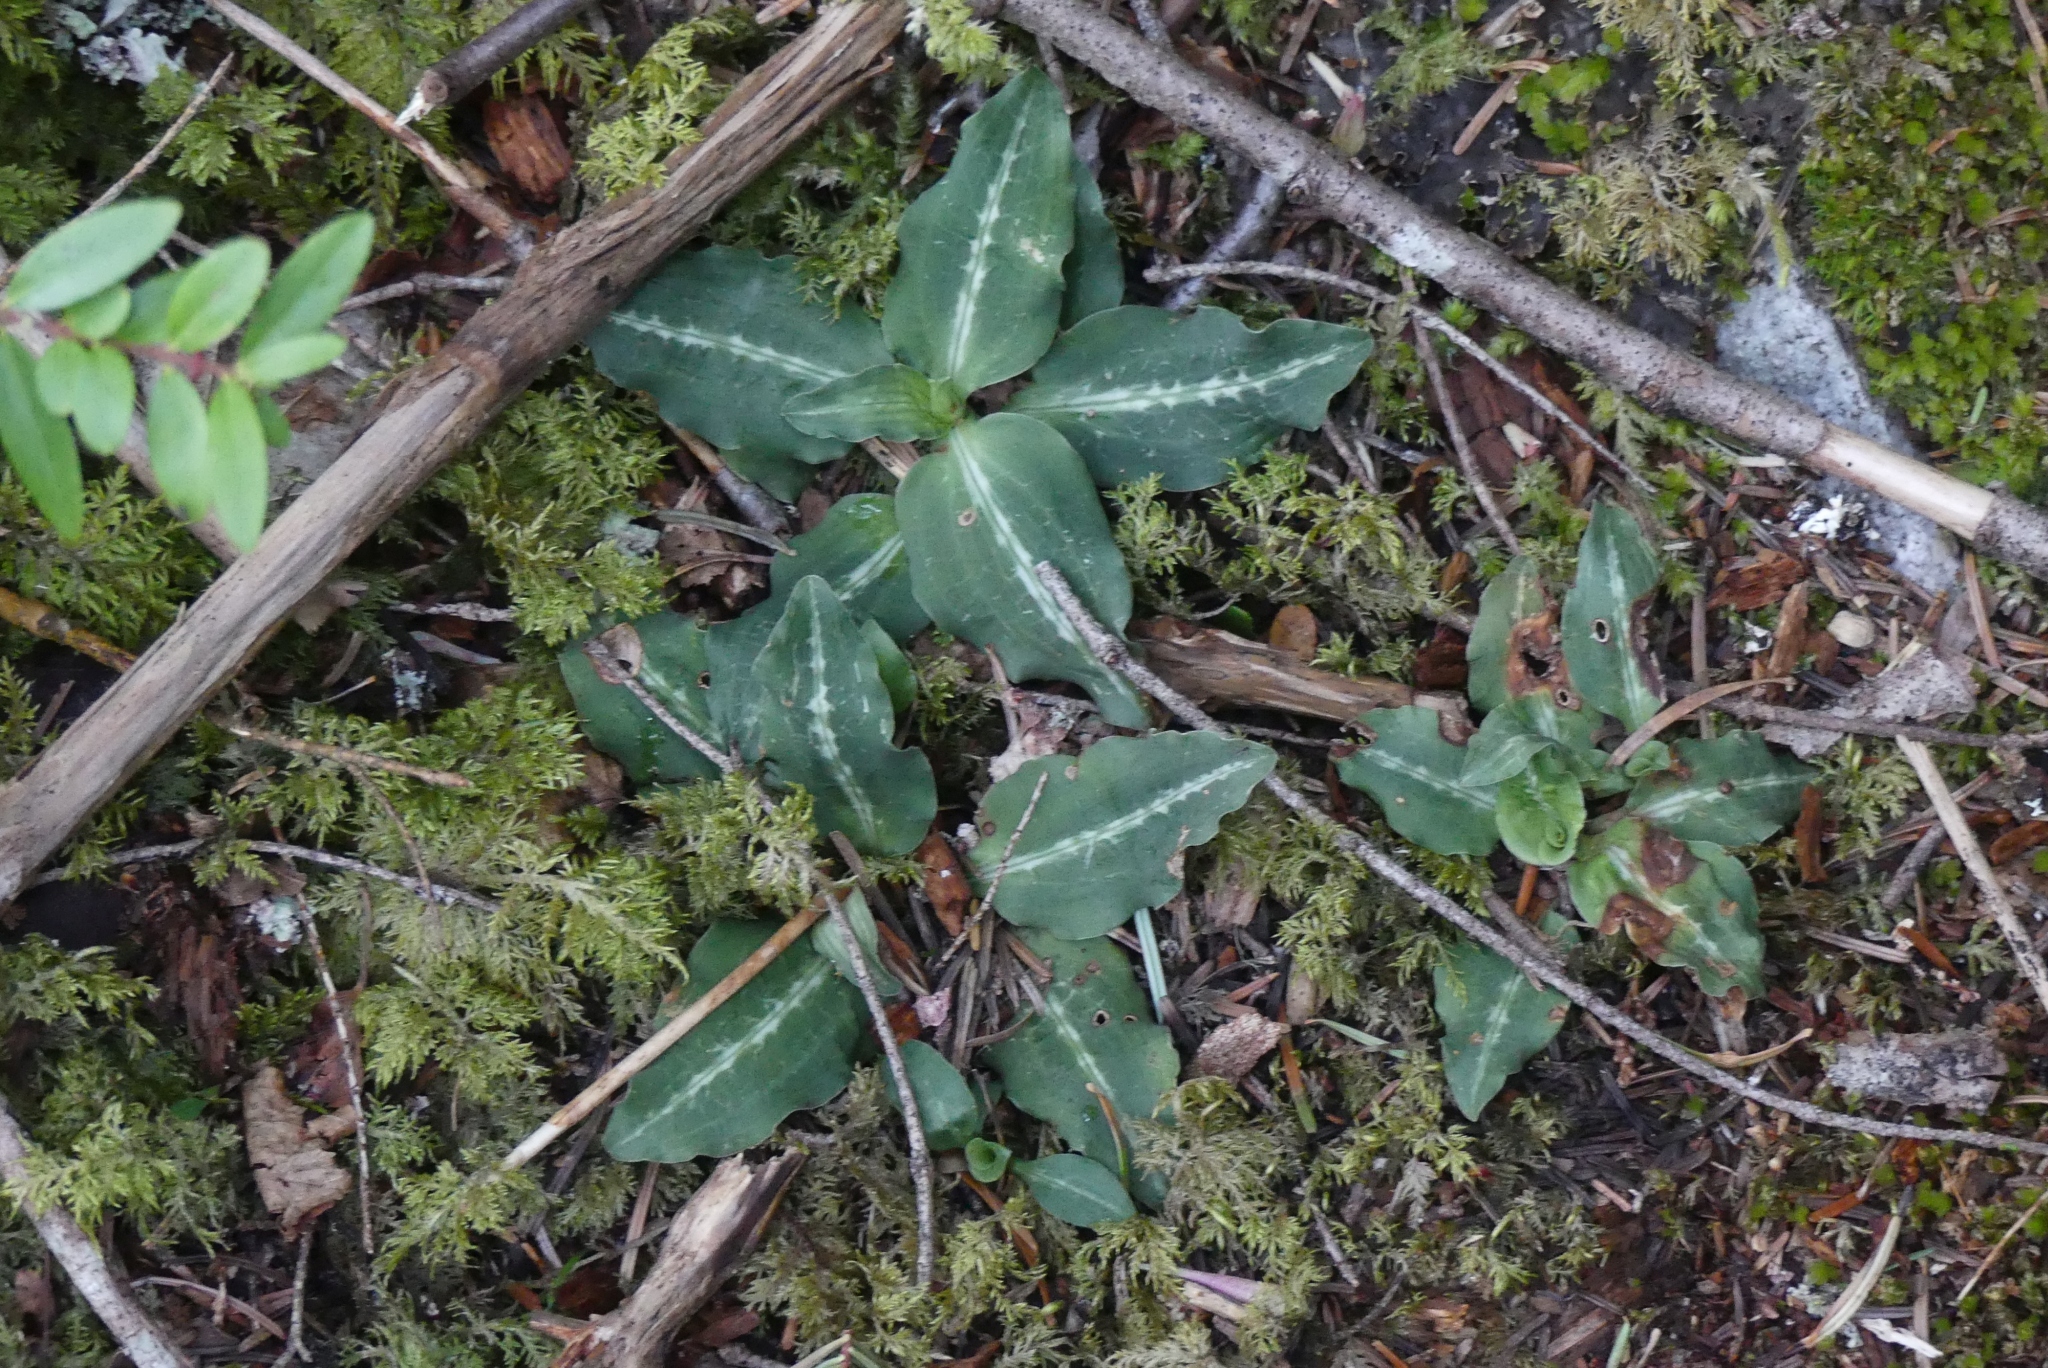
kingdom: Plantae
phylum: Tracheophyta
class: Liliopsida
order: Asparagales
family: Orchidaceae
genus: Goodyera
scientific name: Goodyera oblongifolia
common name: Giant rattlesnake-plantain
